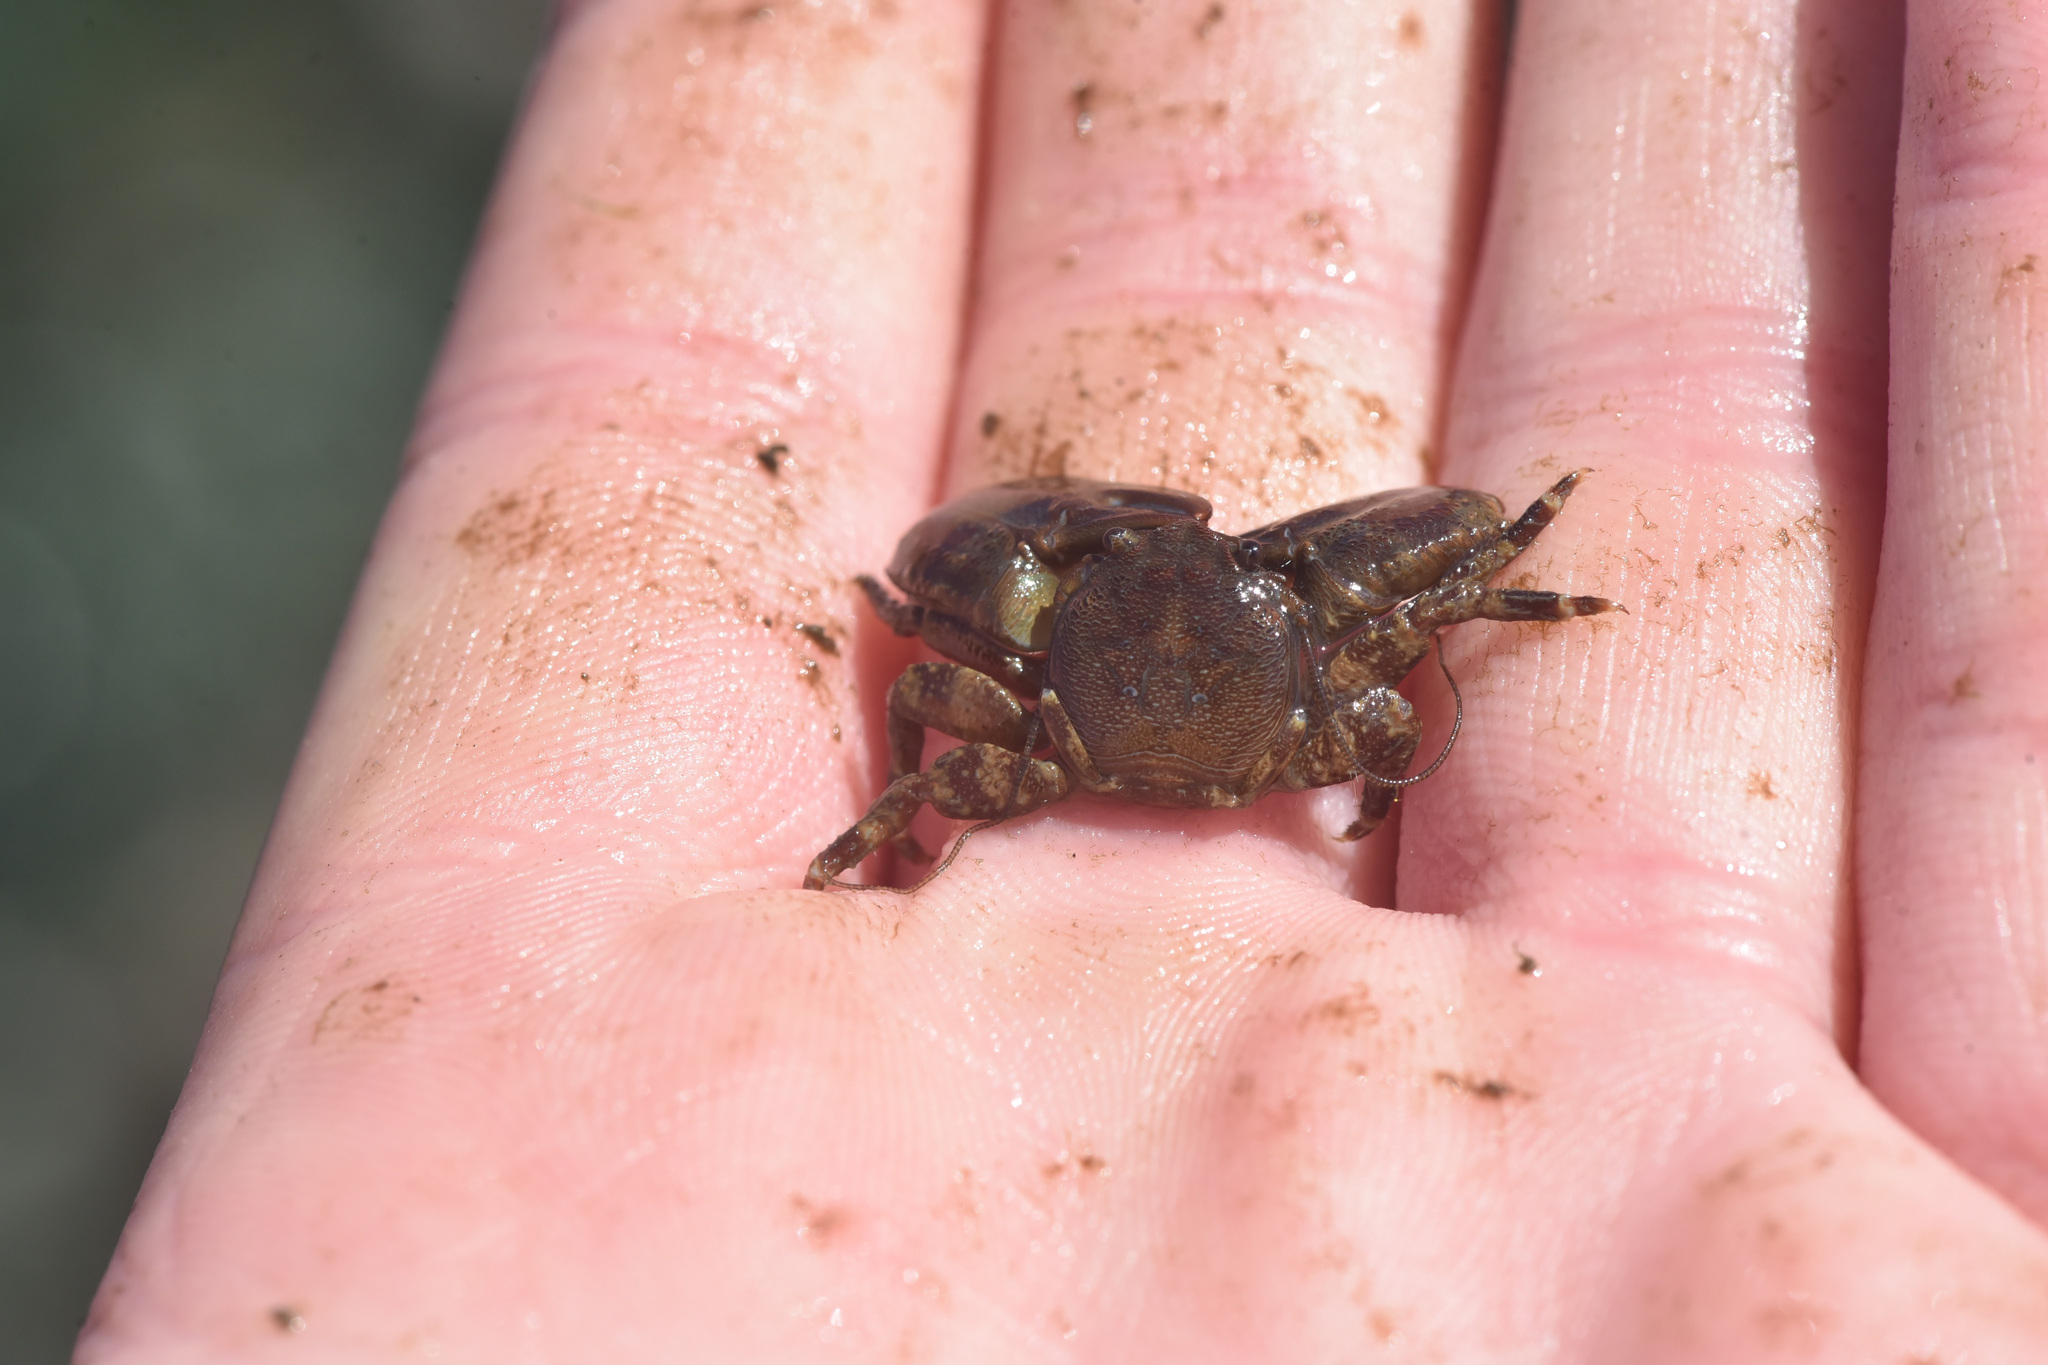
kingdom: Animalia
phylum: Arthropoda
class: Malacostraca
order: Decapoda
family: Porcellanidae
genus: Petrolisthes
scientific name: Petrolisthes eriomerus
